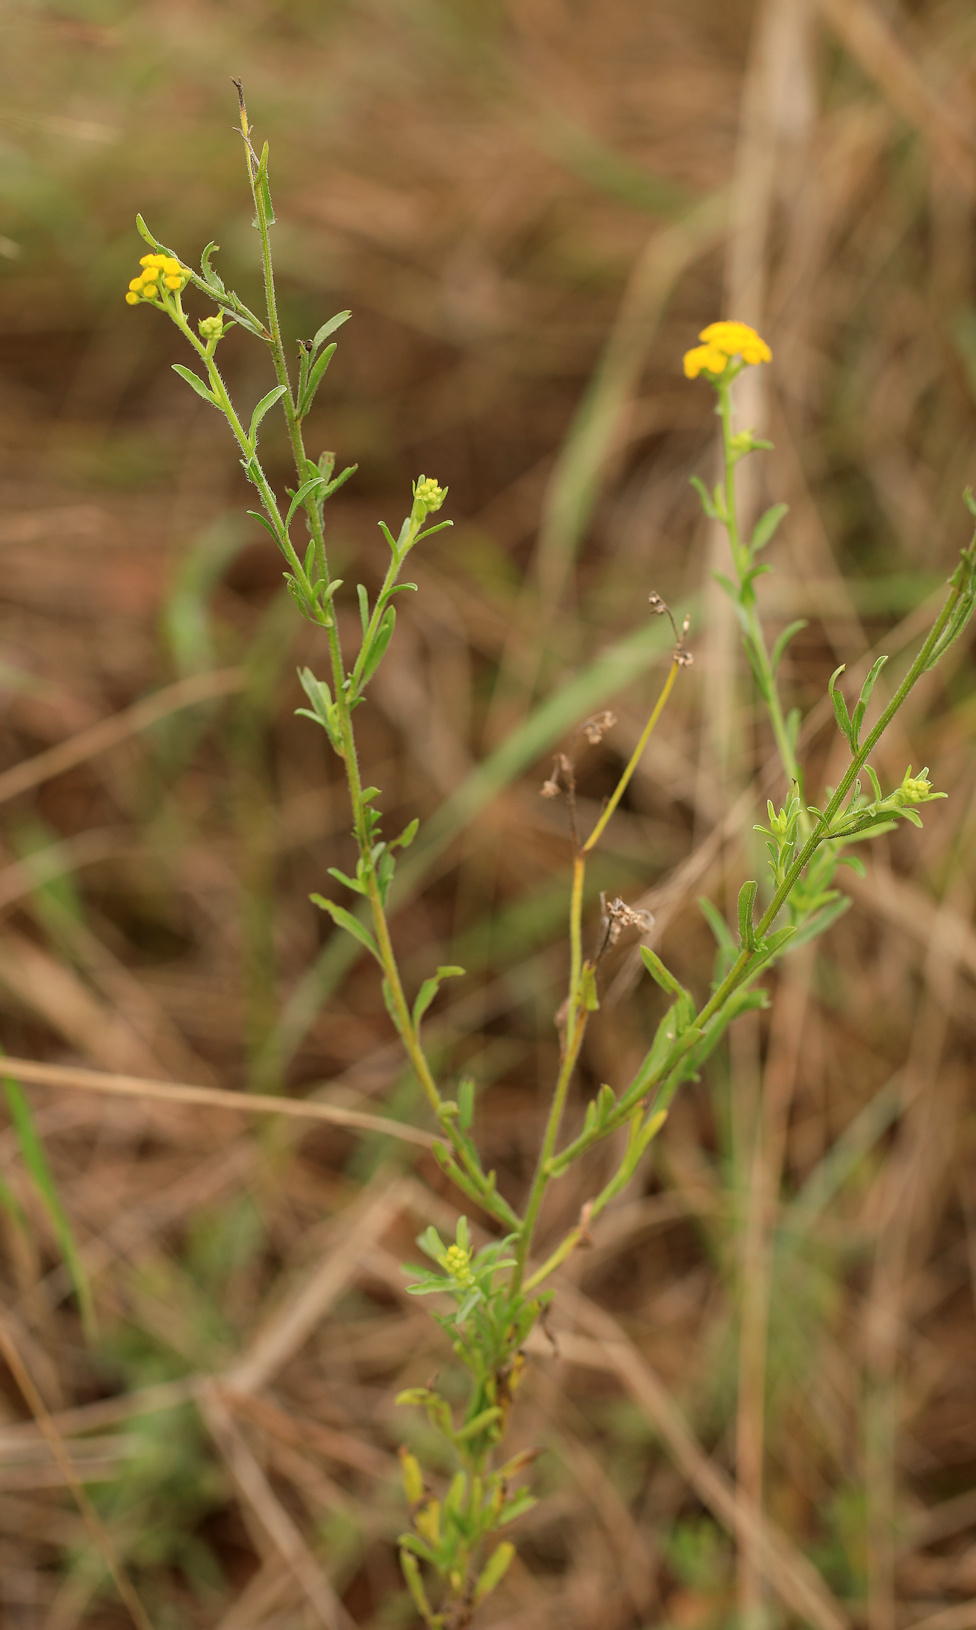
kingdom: Plantae
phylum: Tracheophyta
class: Magnoliopsida
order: Asterales
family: Asteraceae
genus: Nidorella
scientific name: Nidorella anomala
